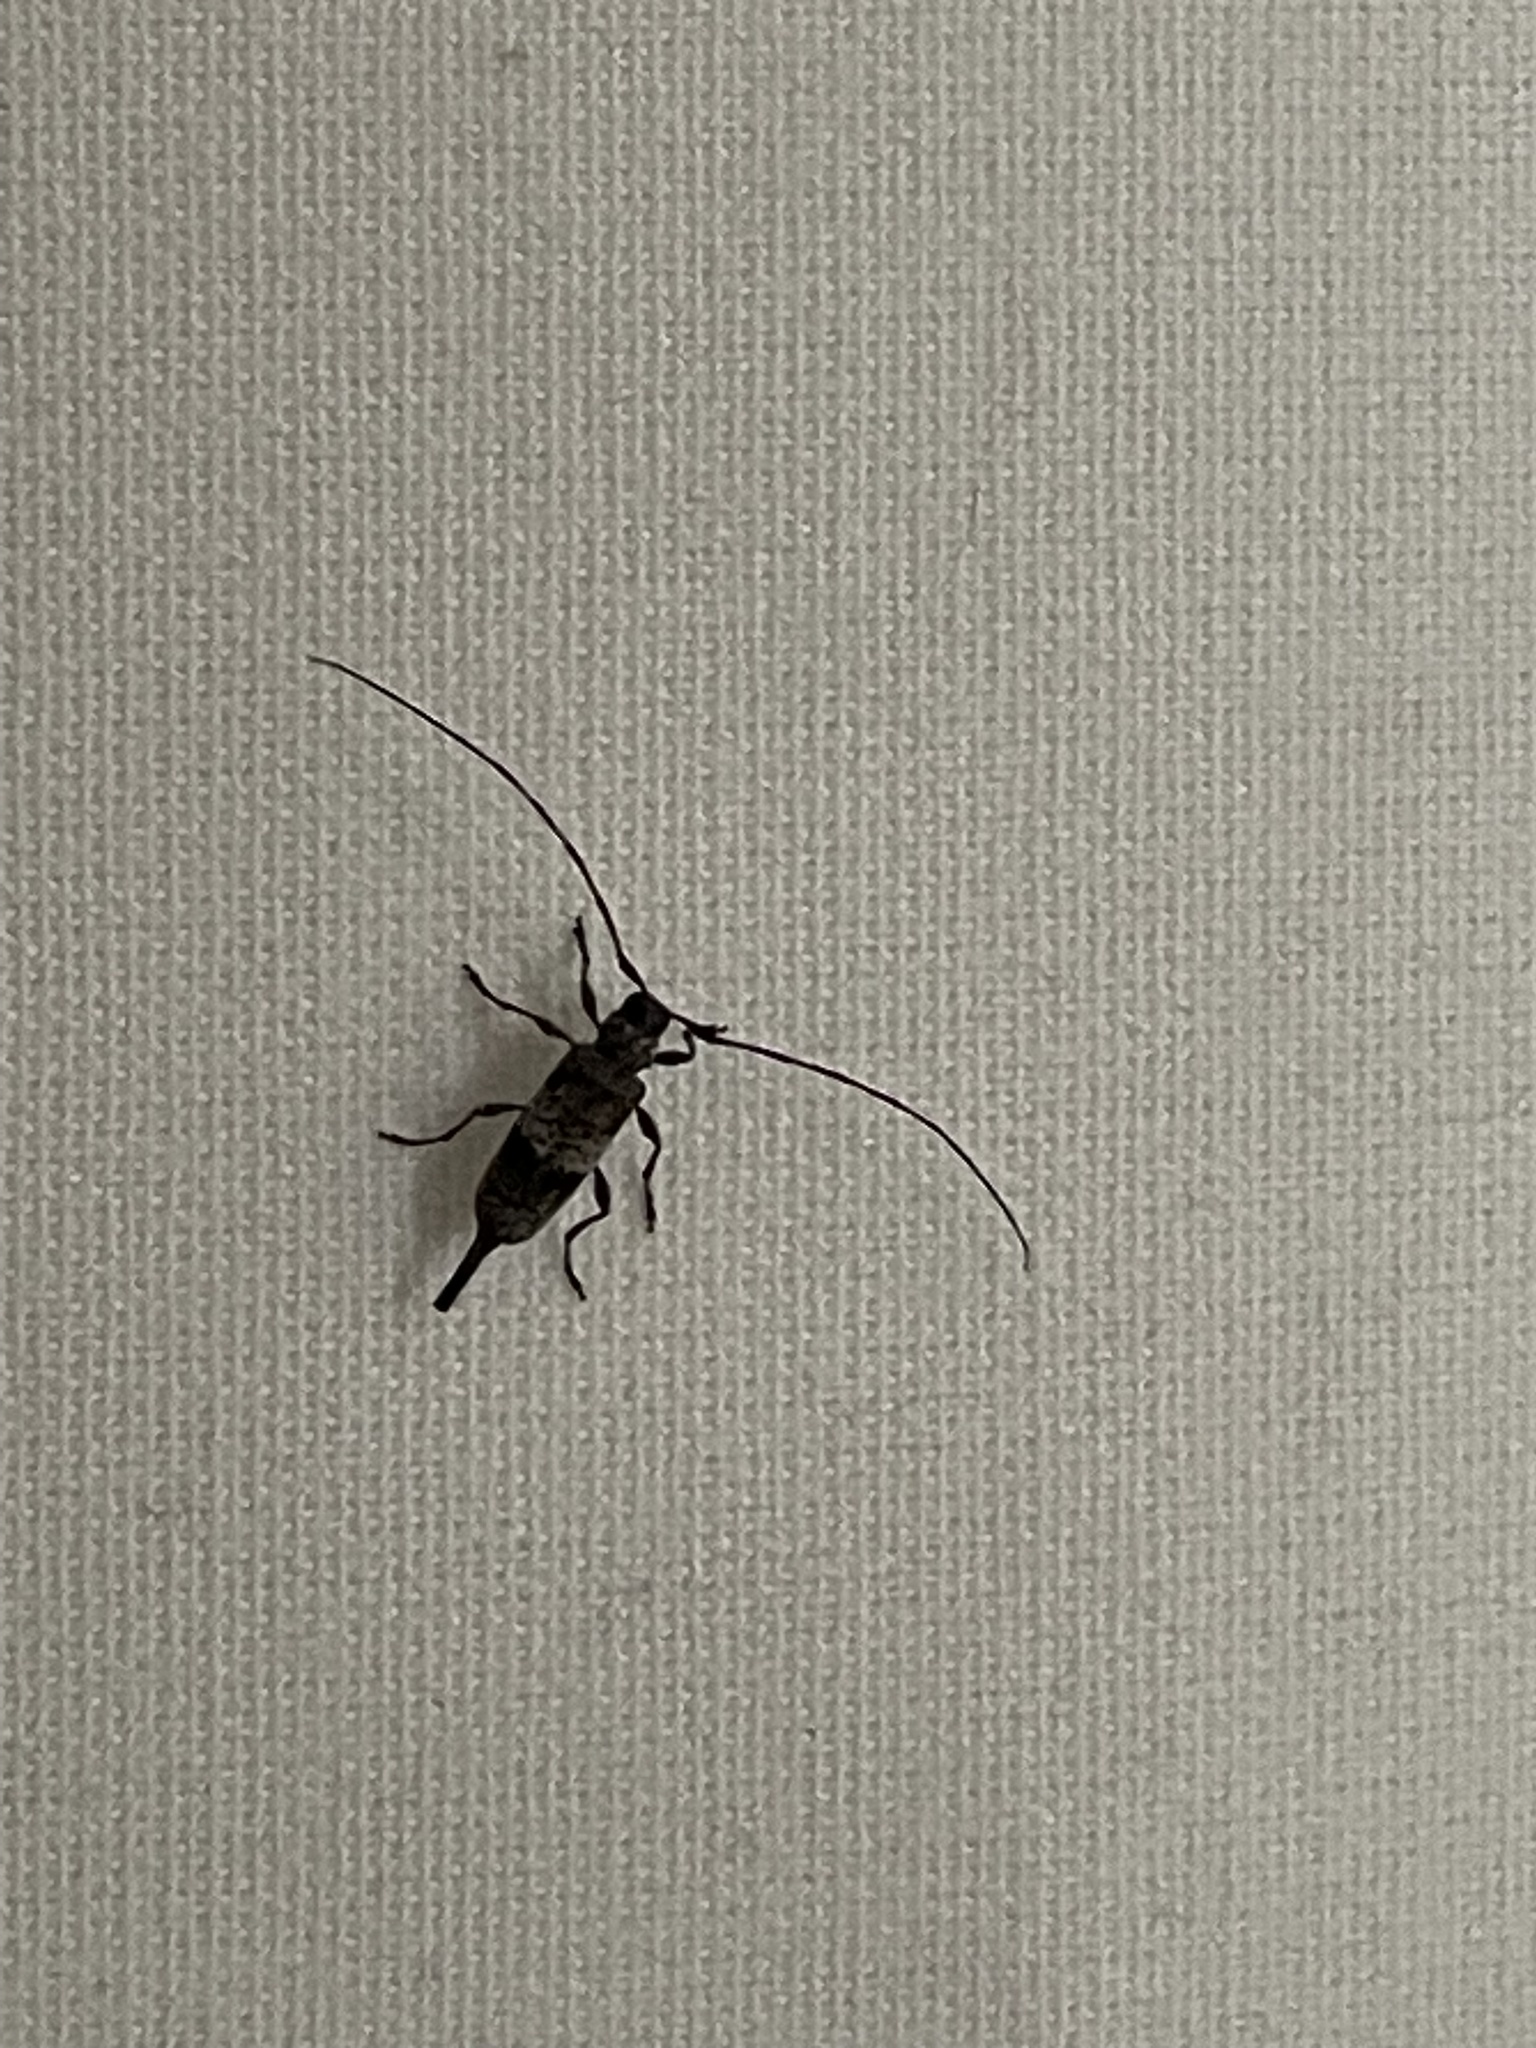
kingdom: Animalia
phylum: Arthropoda
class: Insecta
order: Coleoptera
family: Cerambycidae
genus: Acanthocinus
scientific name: Acanthocinus griseus
